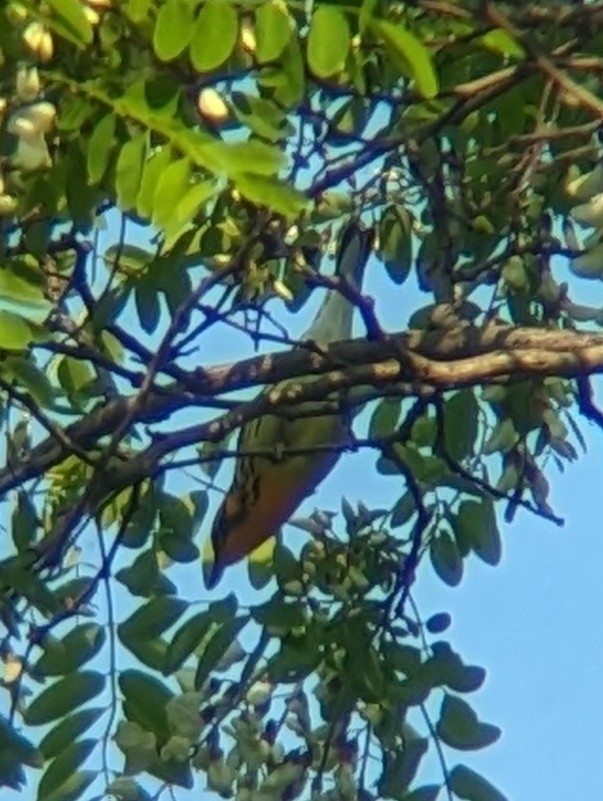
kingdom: Animalia
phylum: Chordata
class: Aves
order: Passeriformes
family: Parulidae
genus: Setophaga
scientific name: Setophaga fusca
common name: Blackburnian warbler
